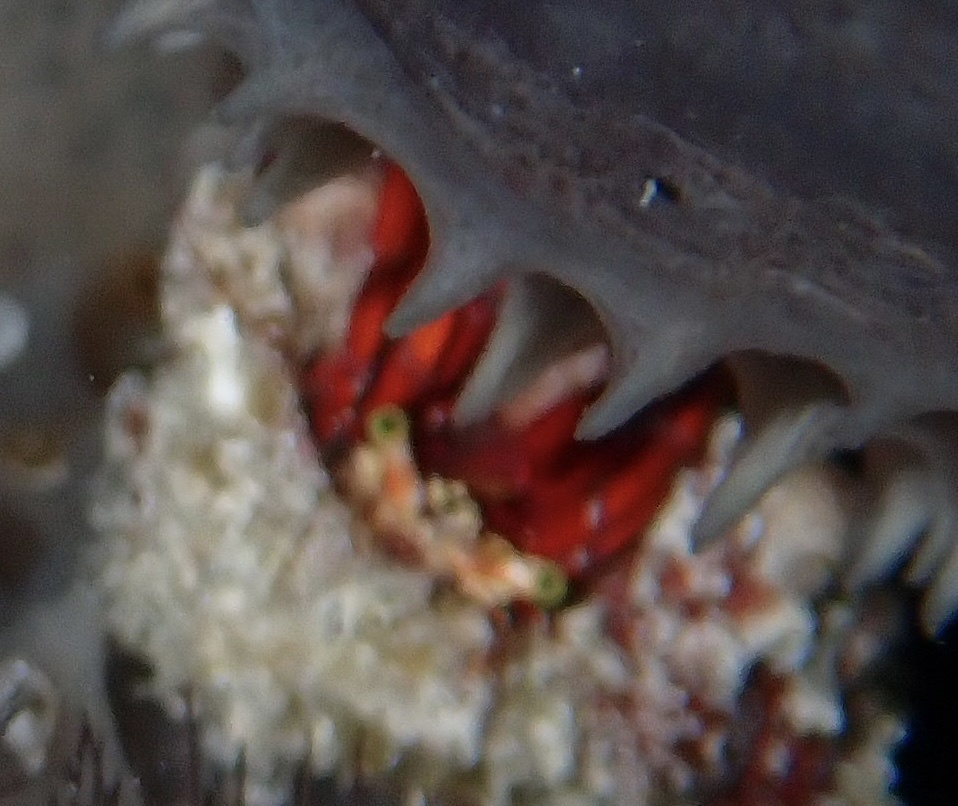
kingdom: Animalia
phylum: Arthropoda
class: Malacostraca
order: Decapoda
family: Diogenidae
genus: Paguristes
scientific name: Paguristes cadenati
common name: Red reef hermit
